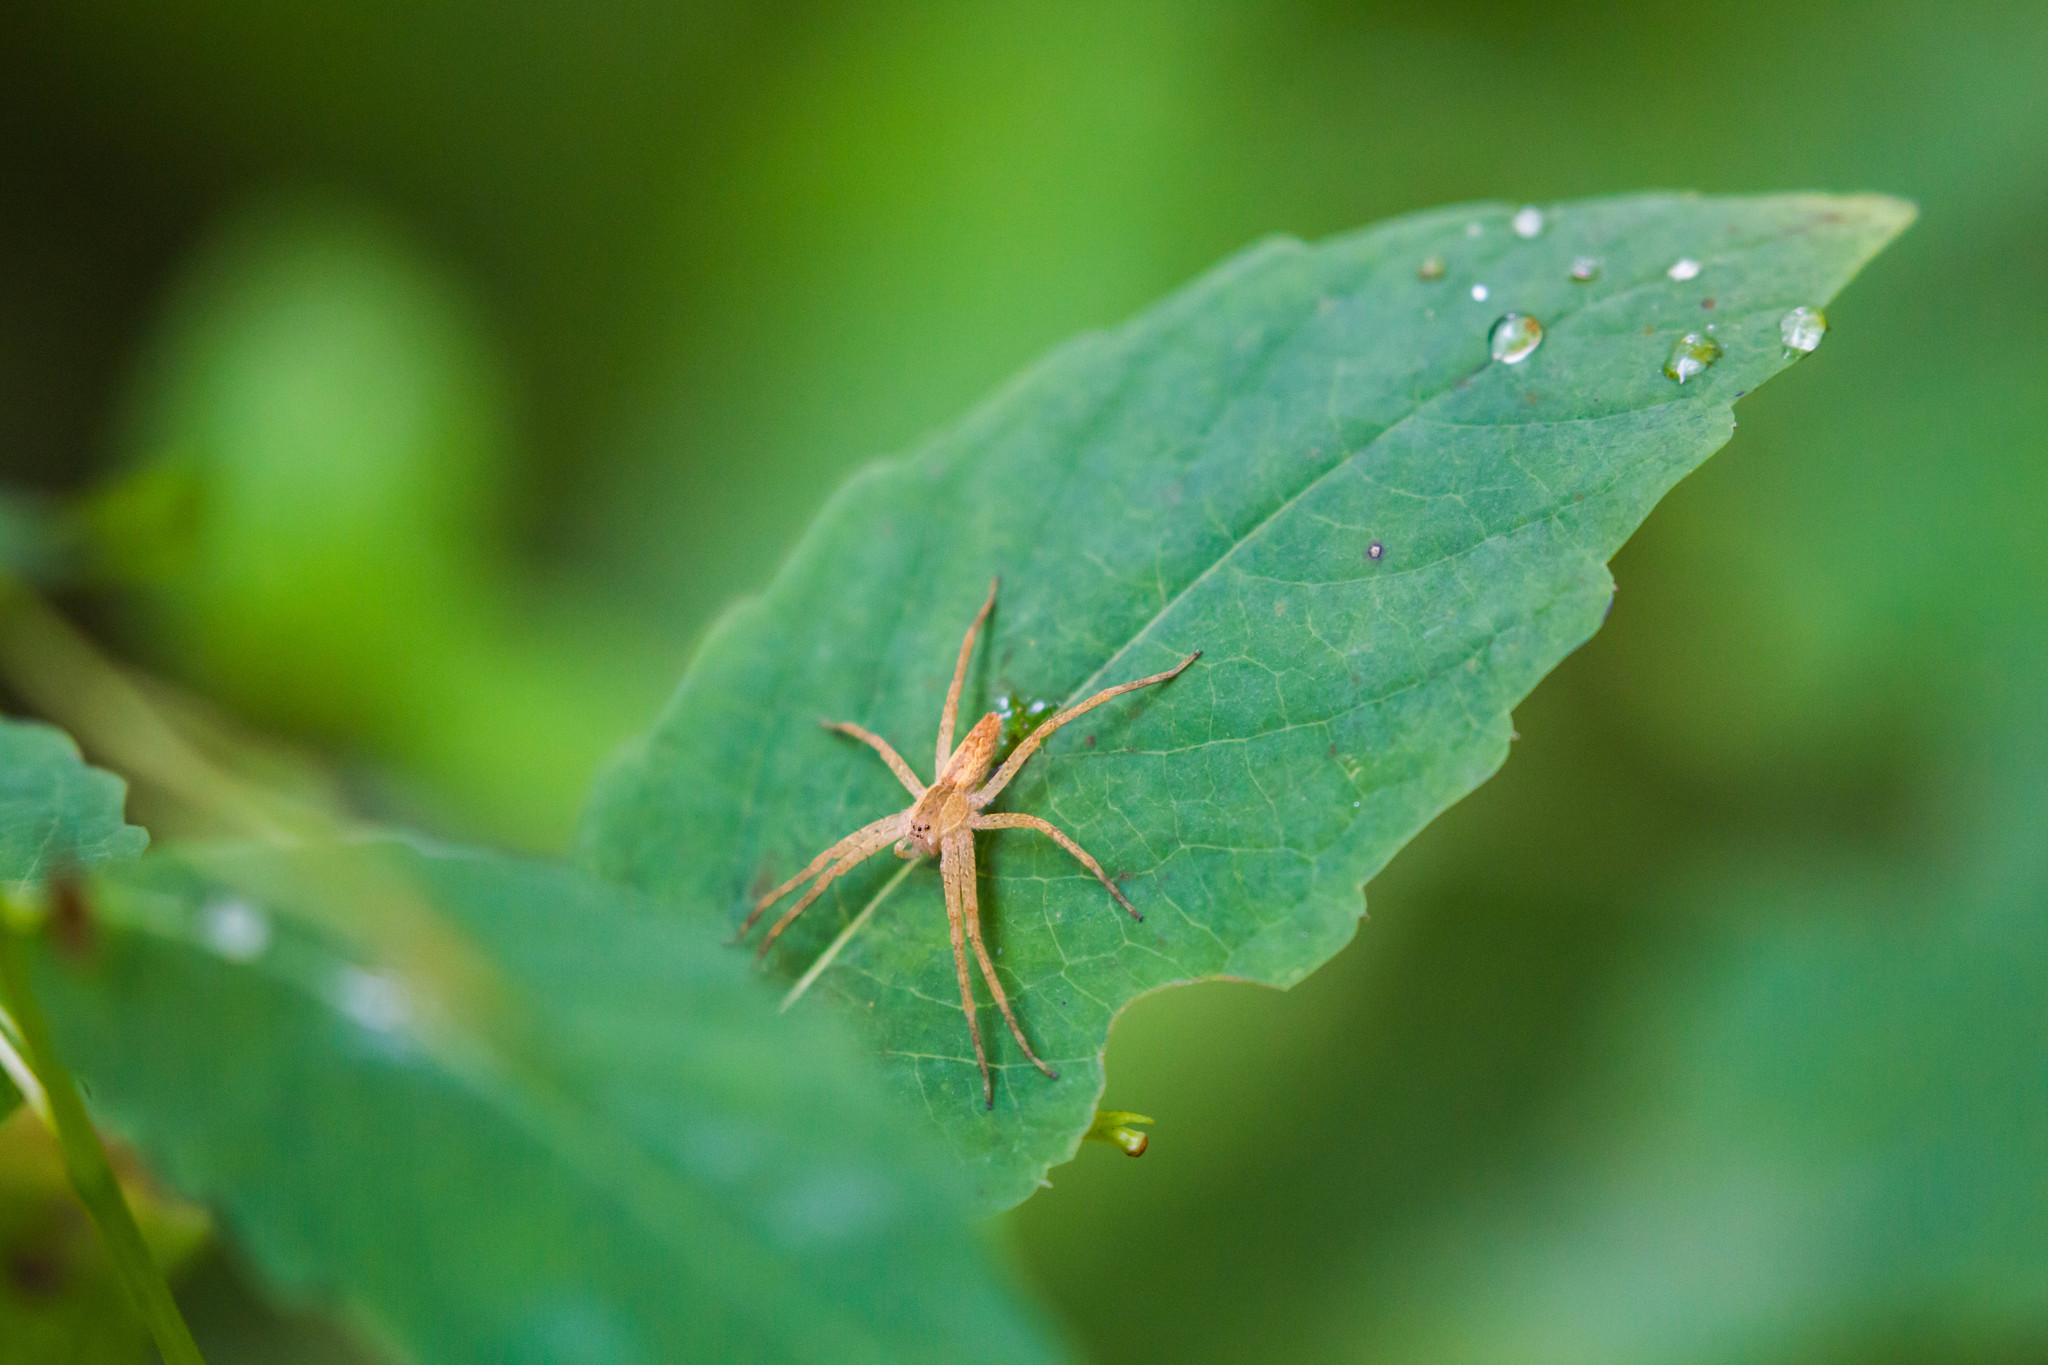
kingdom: Animalia
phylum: Arthropoda
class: Arachnida
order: Araneae
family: Pisauridae
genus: Pisaurina
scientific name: Pisaurina mira
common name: American nursery web spider
